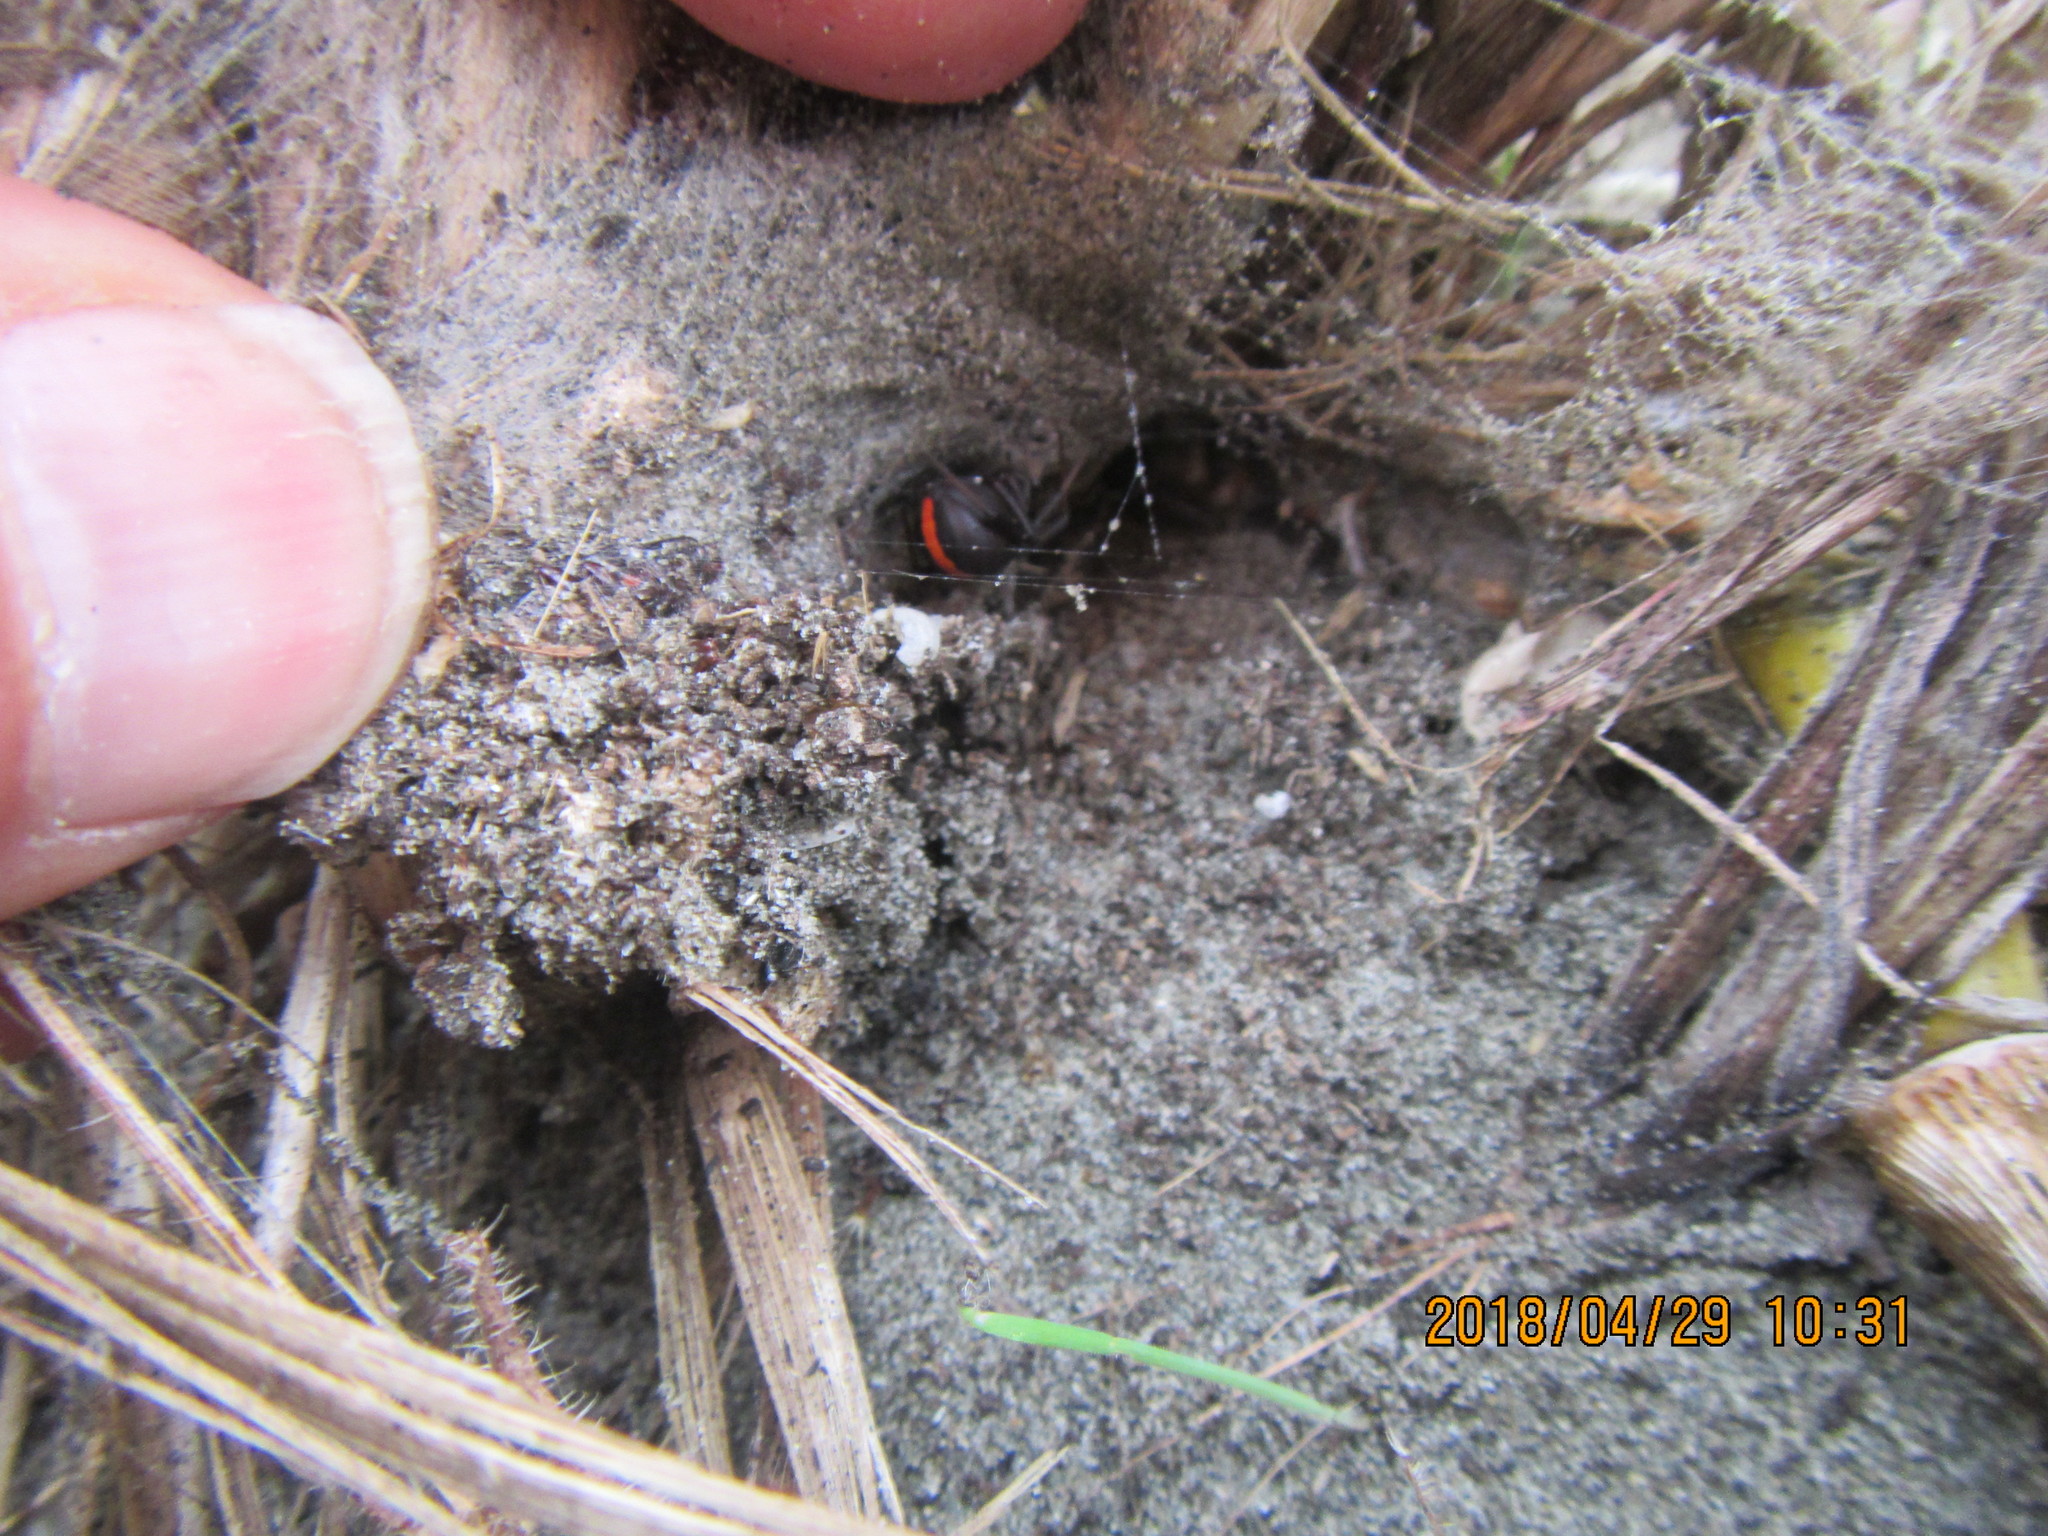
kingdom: Animalia
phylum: Arthropoda
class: Arachnida
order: Araneae
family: Theridiidae
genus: Latrodectus
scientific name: Latrodectus katipo
